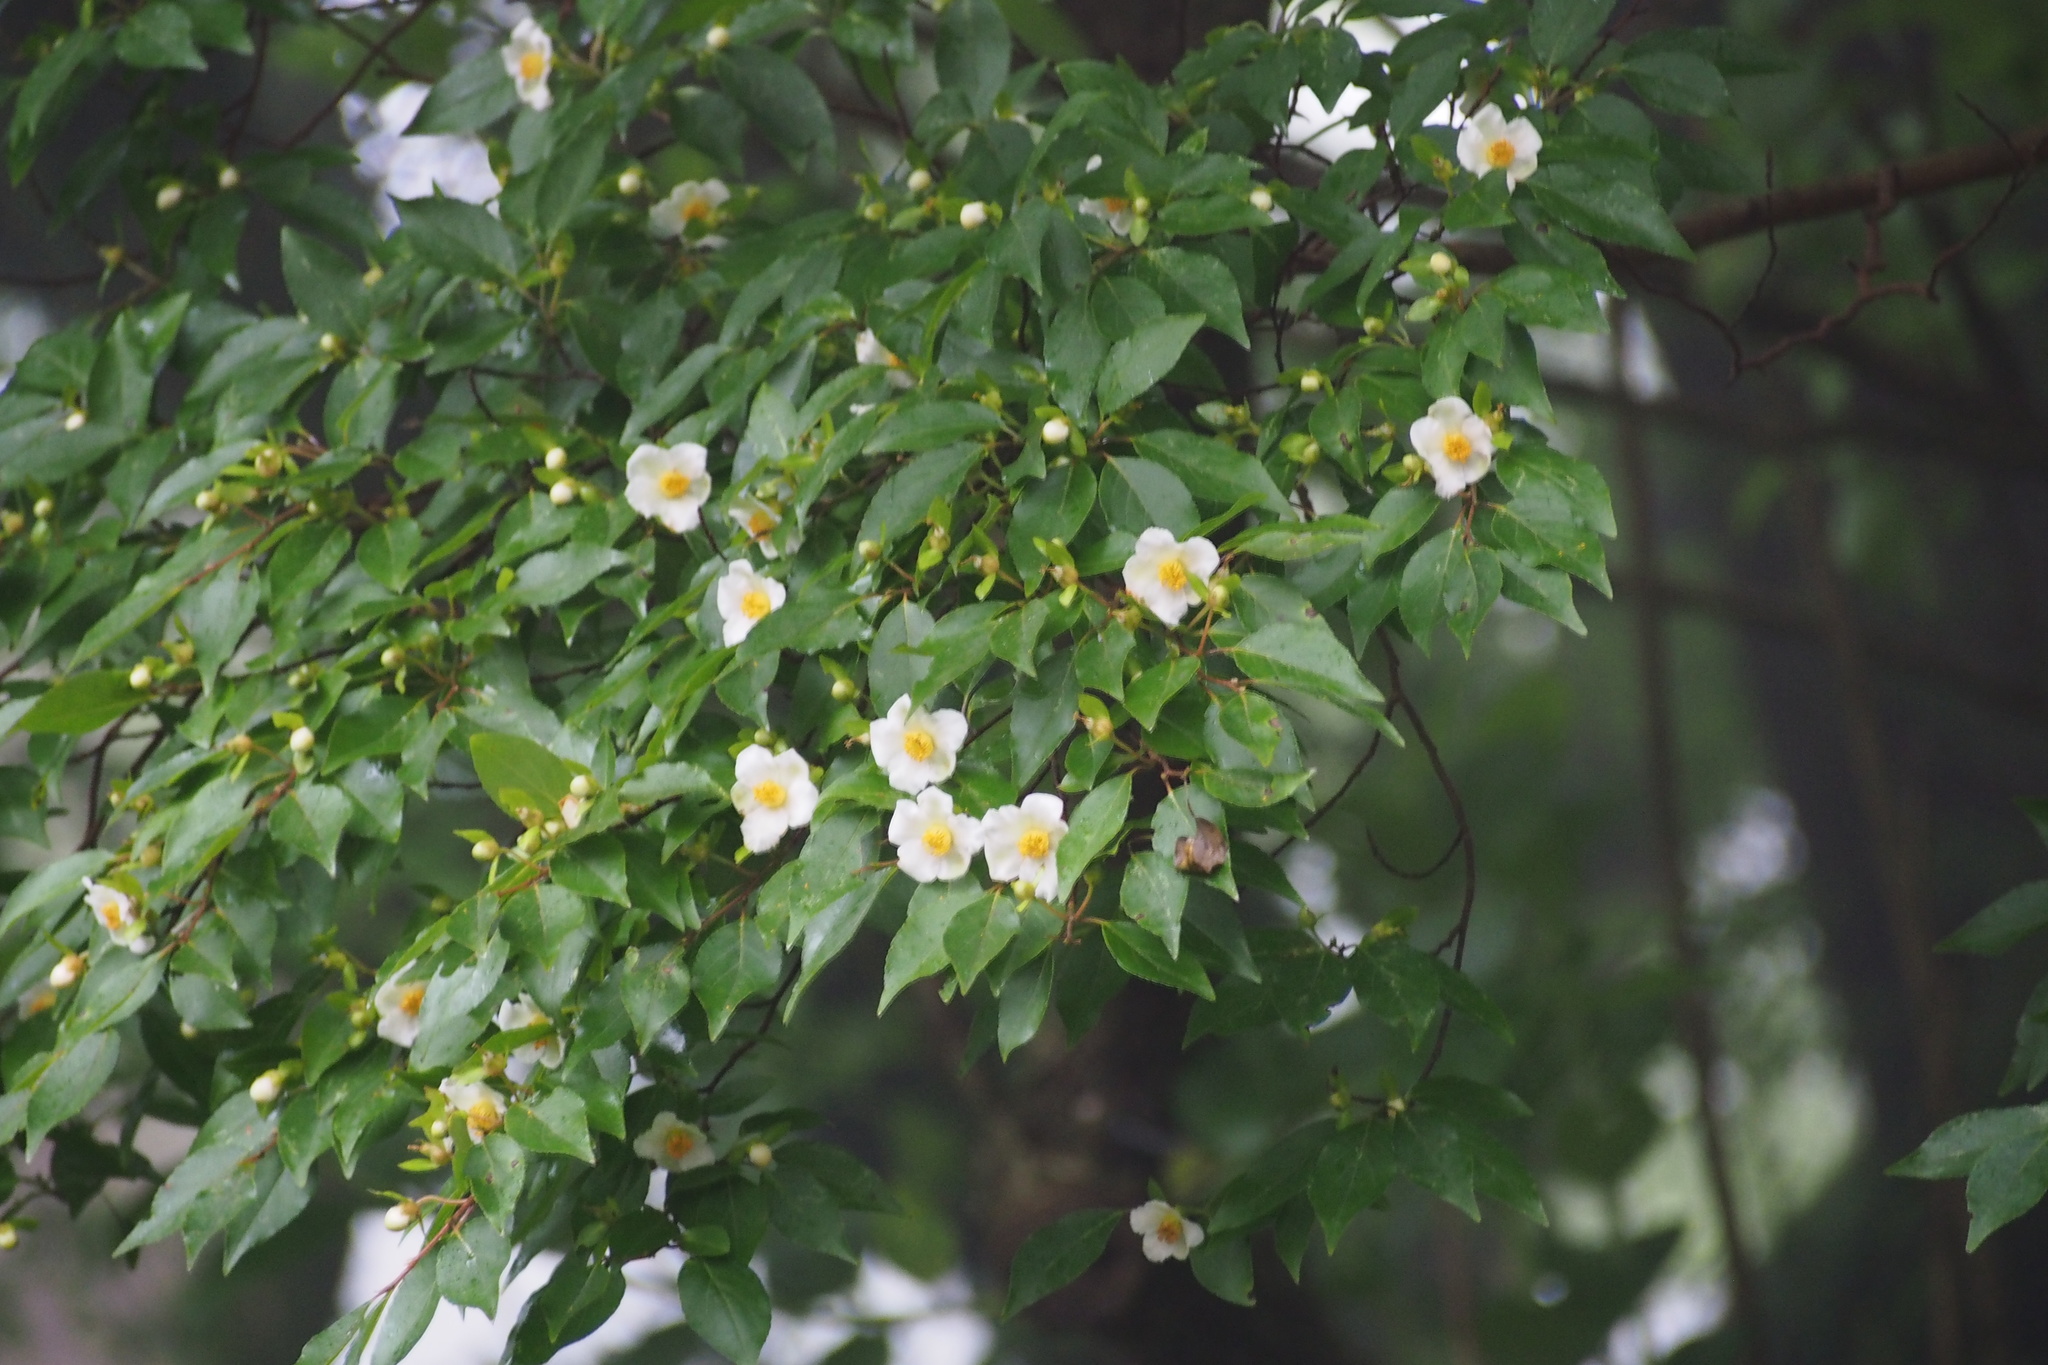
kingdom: Plantae
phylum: Tracheophyta
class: Magnoliopsida
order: Ericales
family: Theaceae
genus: Stewartia
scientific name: Stewartia monadelpha
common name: Tall stewartia
